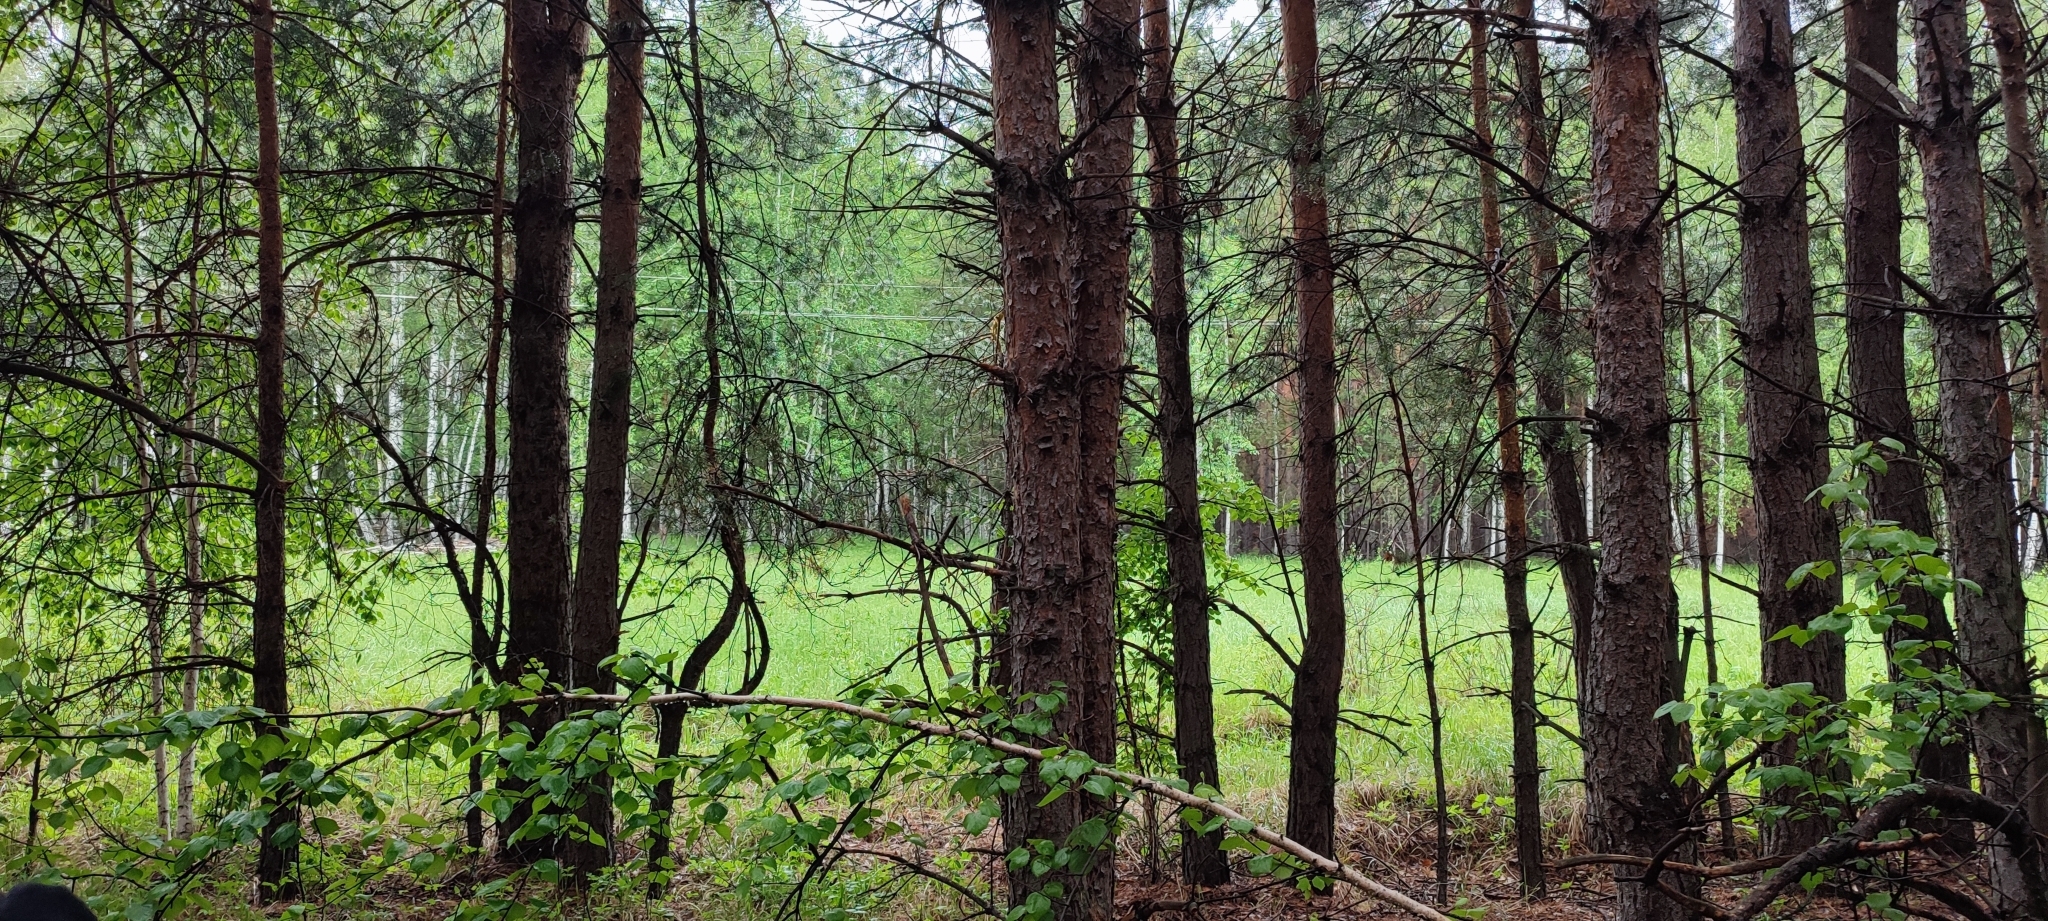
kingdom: Plantae
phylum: Tracheophyta
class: Pinopsida
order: Pinales
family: Pinaceae
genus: Pinus
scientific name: Pinus sylvestris
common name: Scots pine
